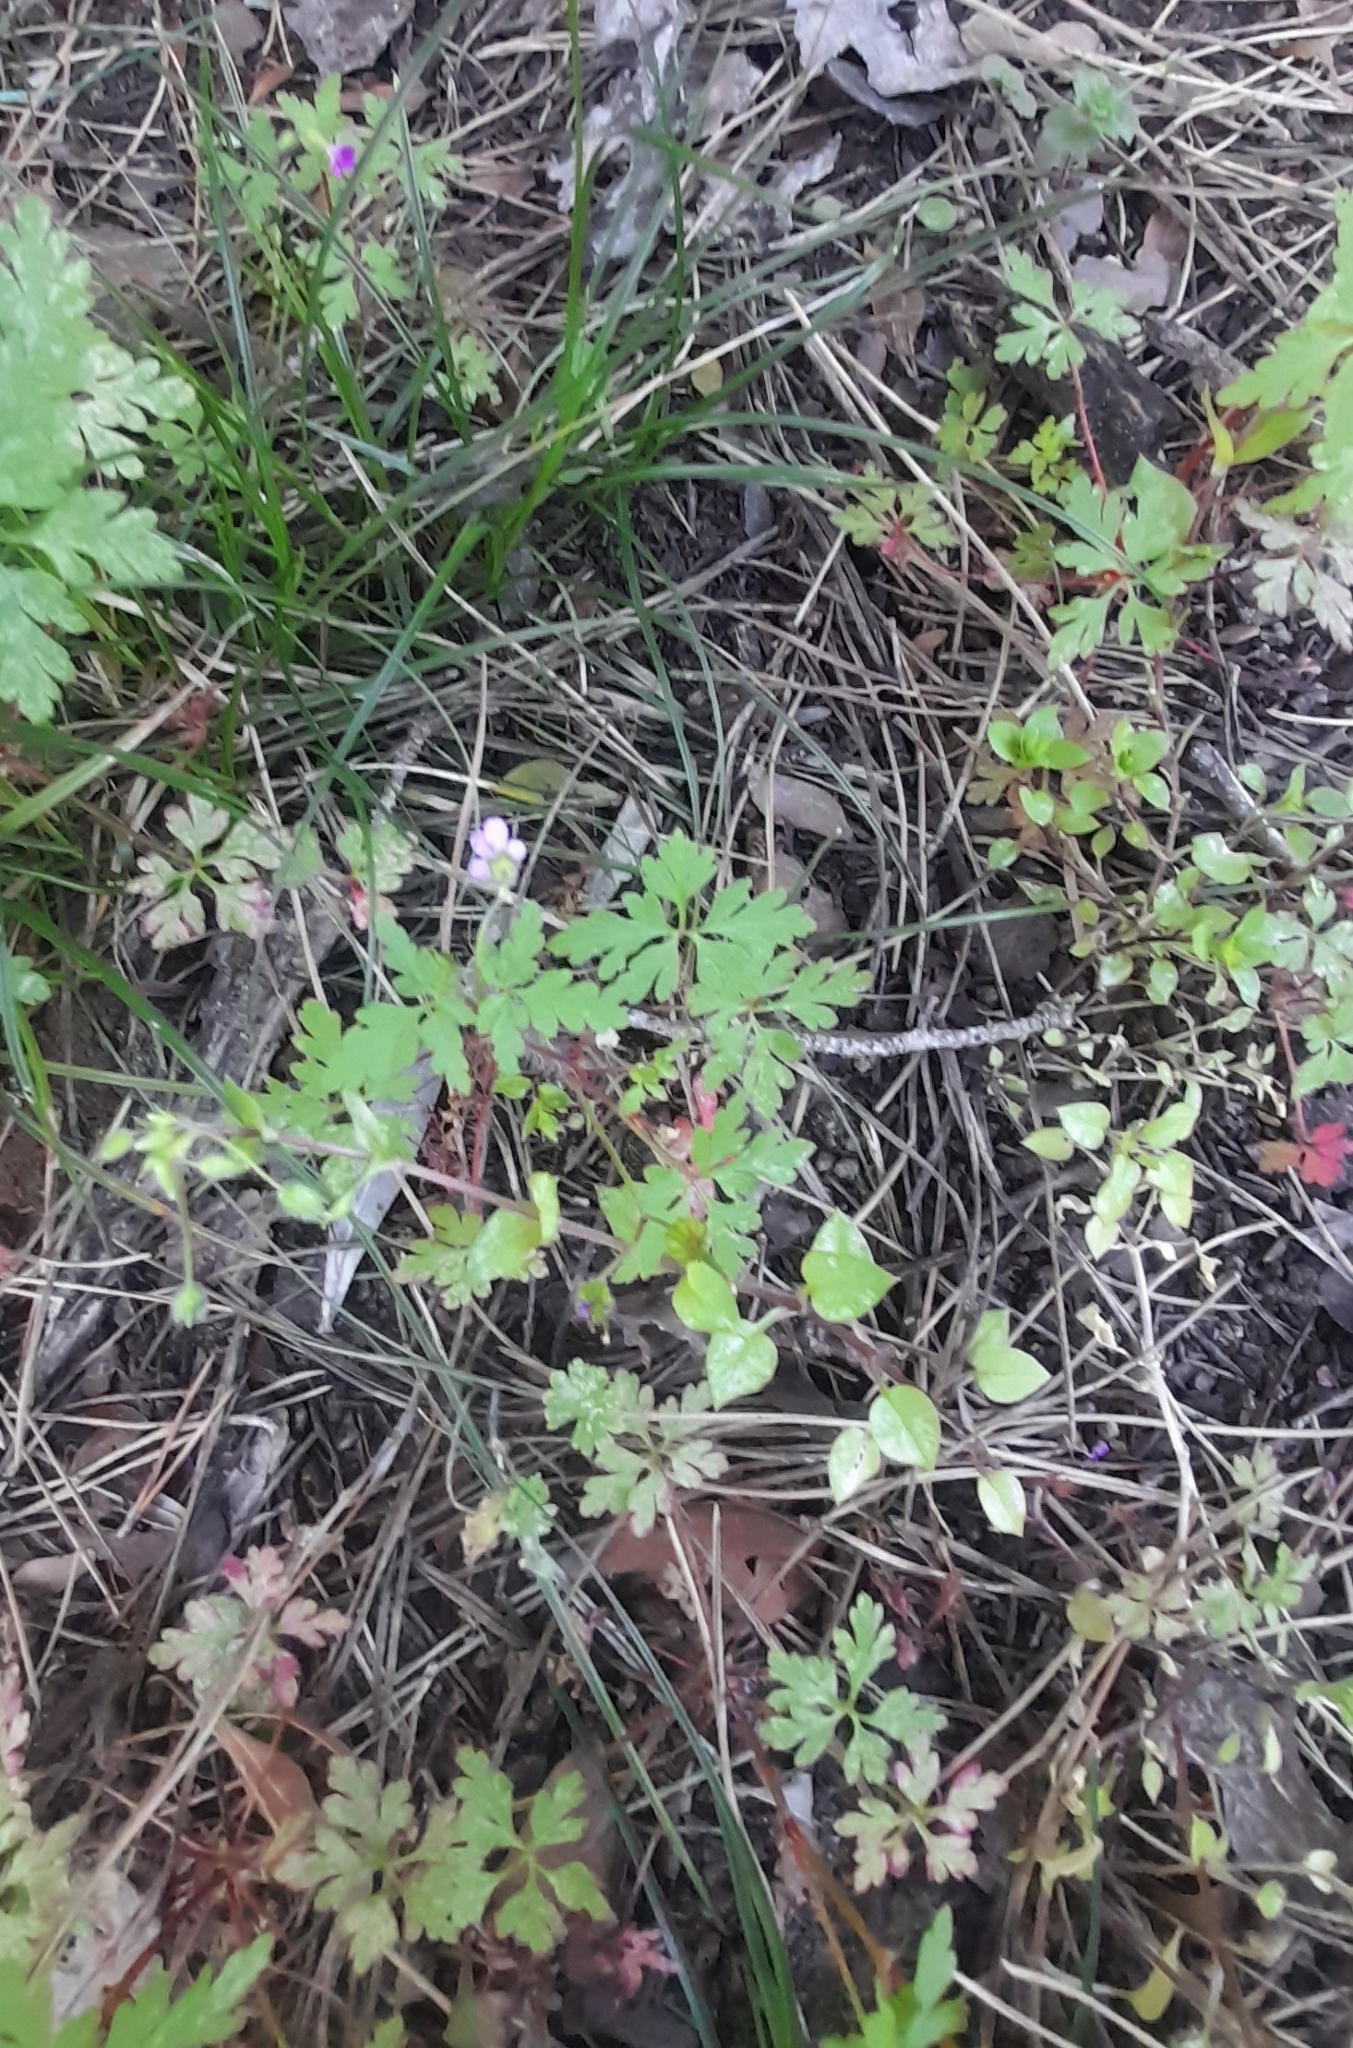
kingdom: Plantae
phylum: Tracheophyta
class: Magnoliopsida
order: Geraniales
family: Geraniaceae
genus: Geranium
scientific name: Geranium purpureum
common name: Little-robin
